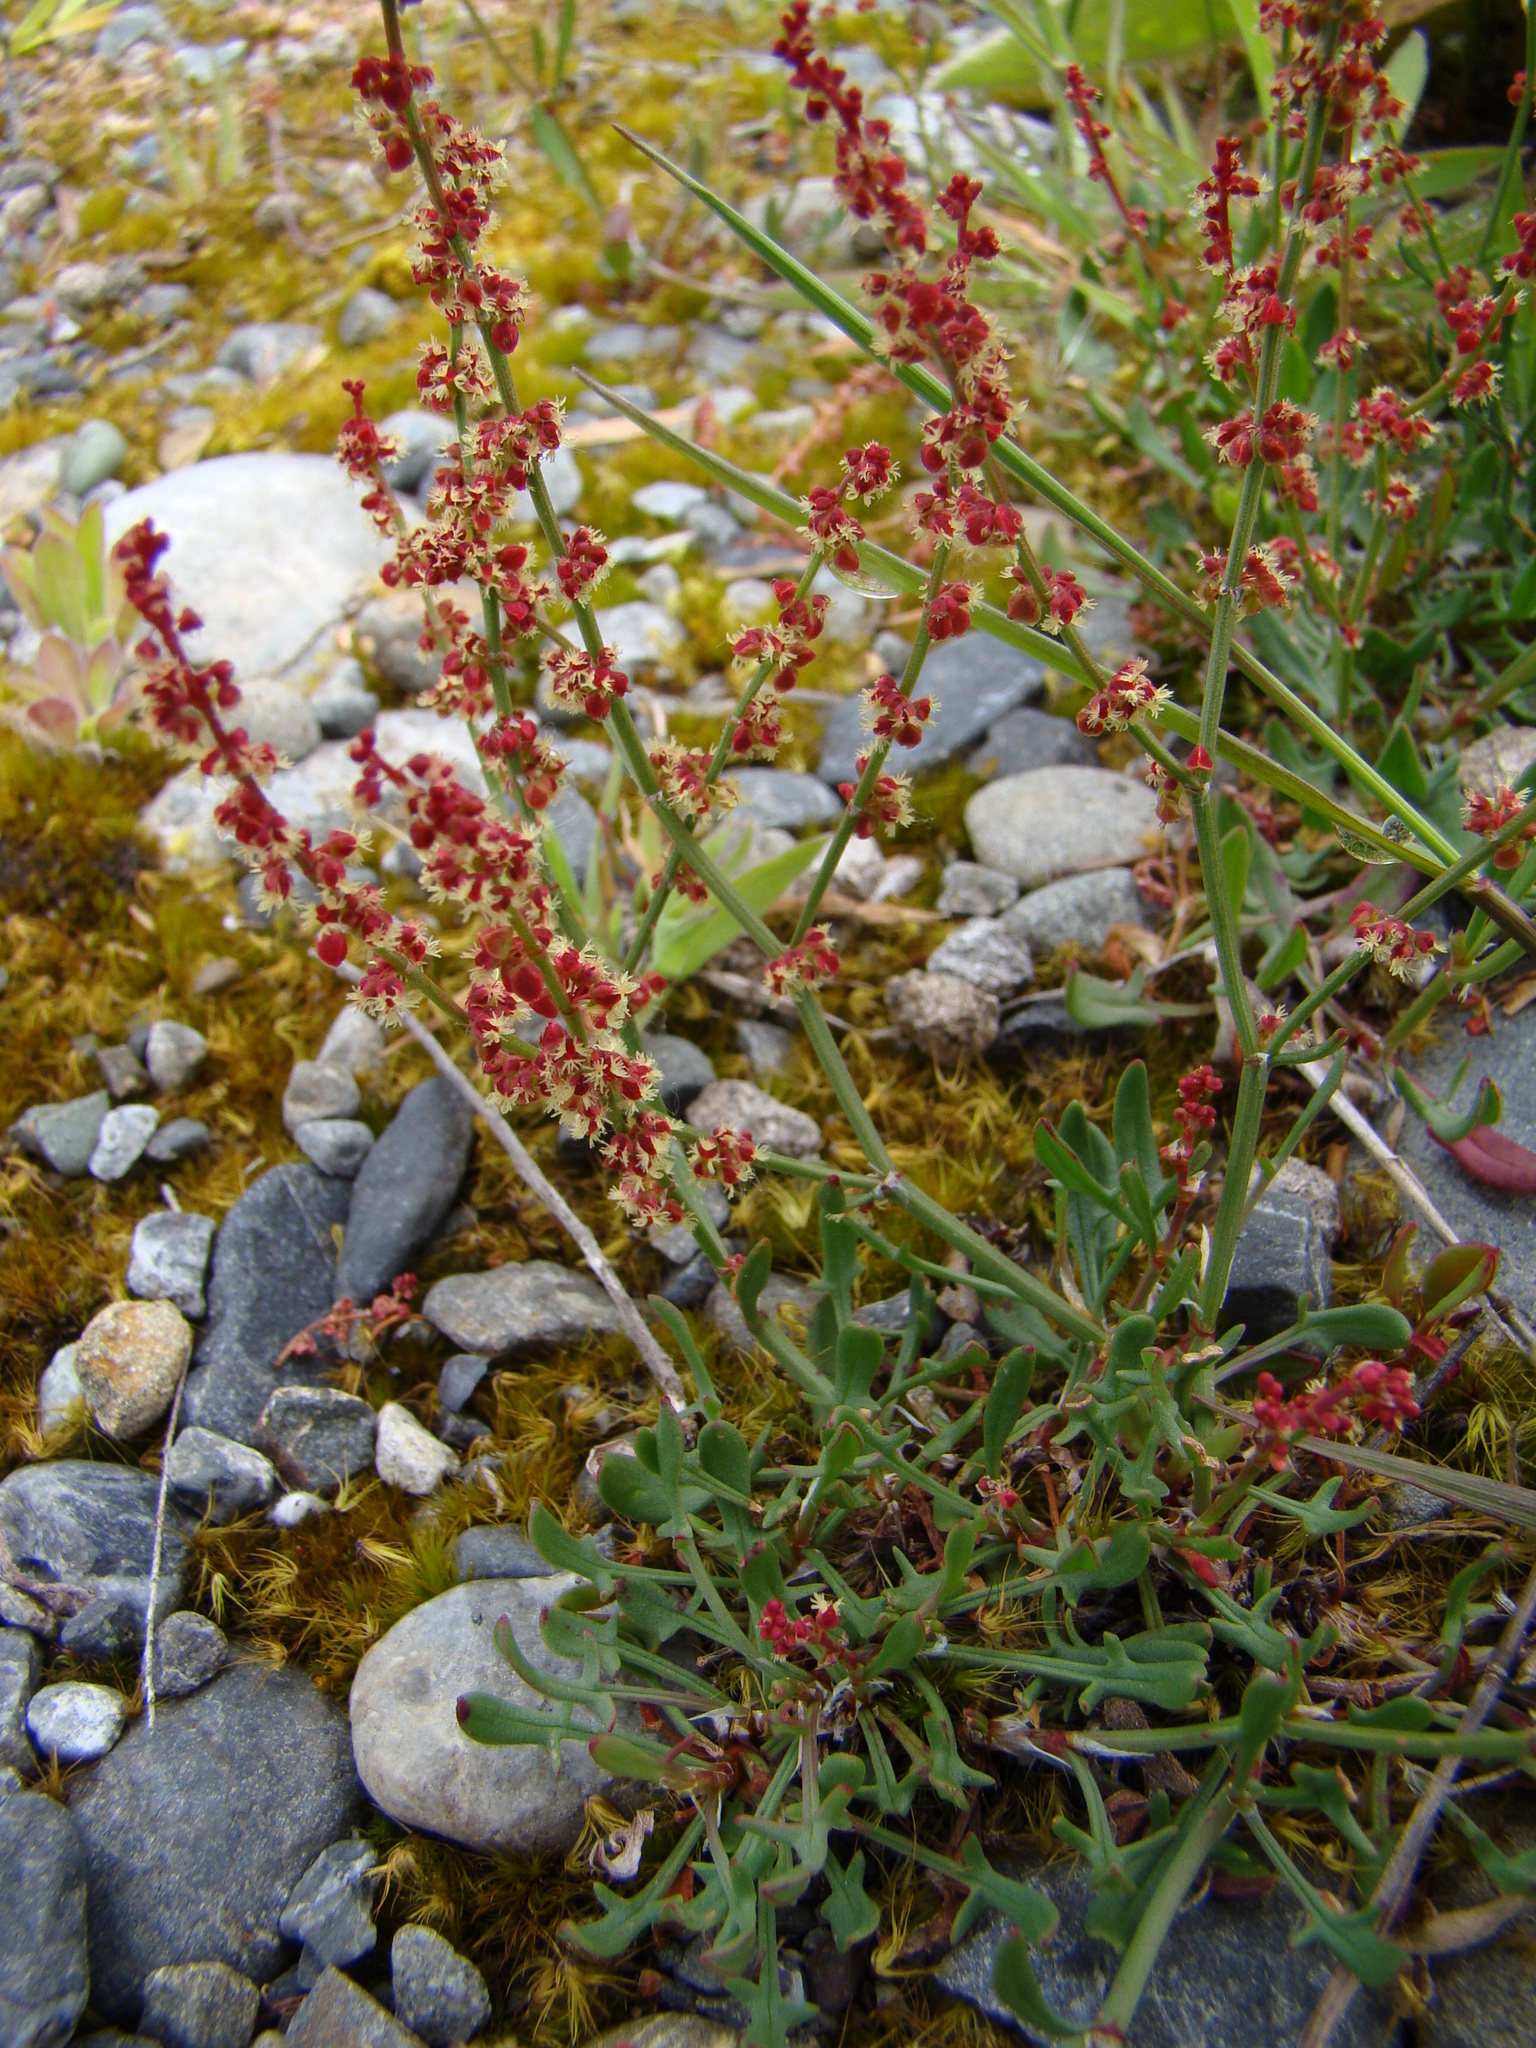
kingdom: Plantae
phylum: Tracheophyta
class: Magnoliopsida
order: Caryophyllales
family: Polygonaceae
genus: Rumex
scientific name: Rumex acetosella
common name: Common sheep sorrel
